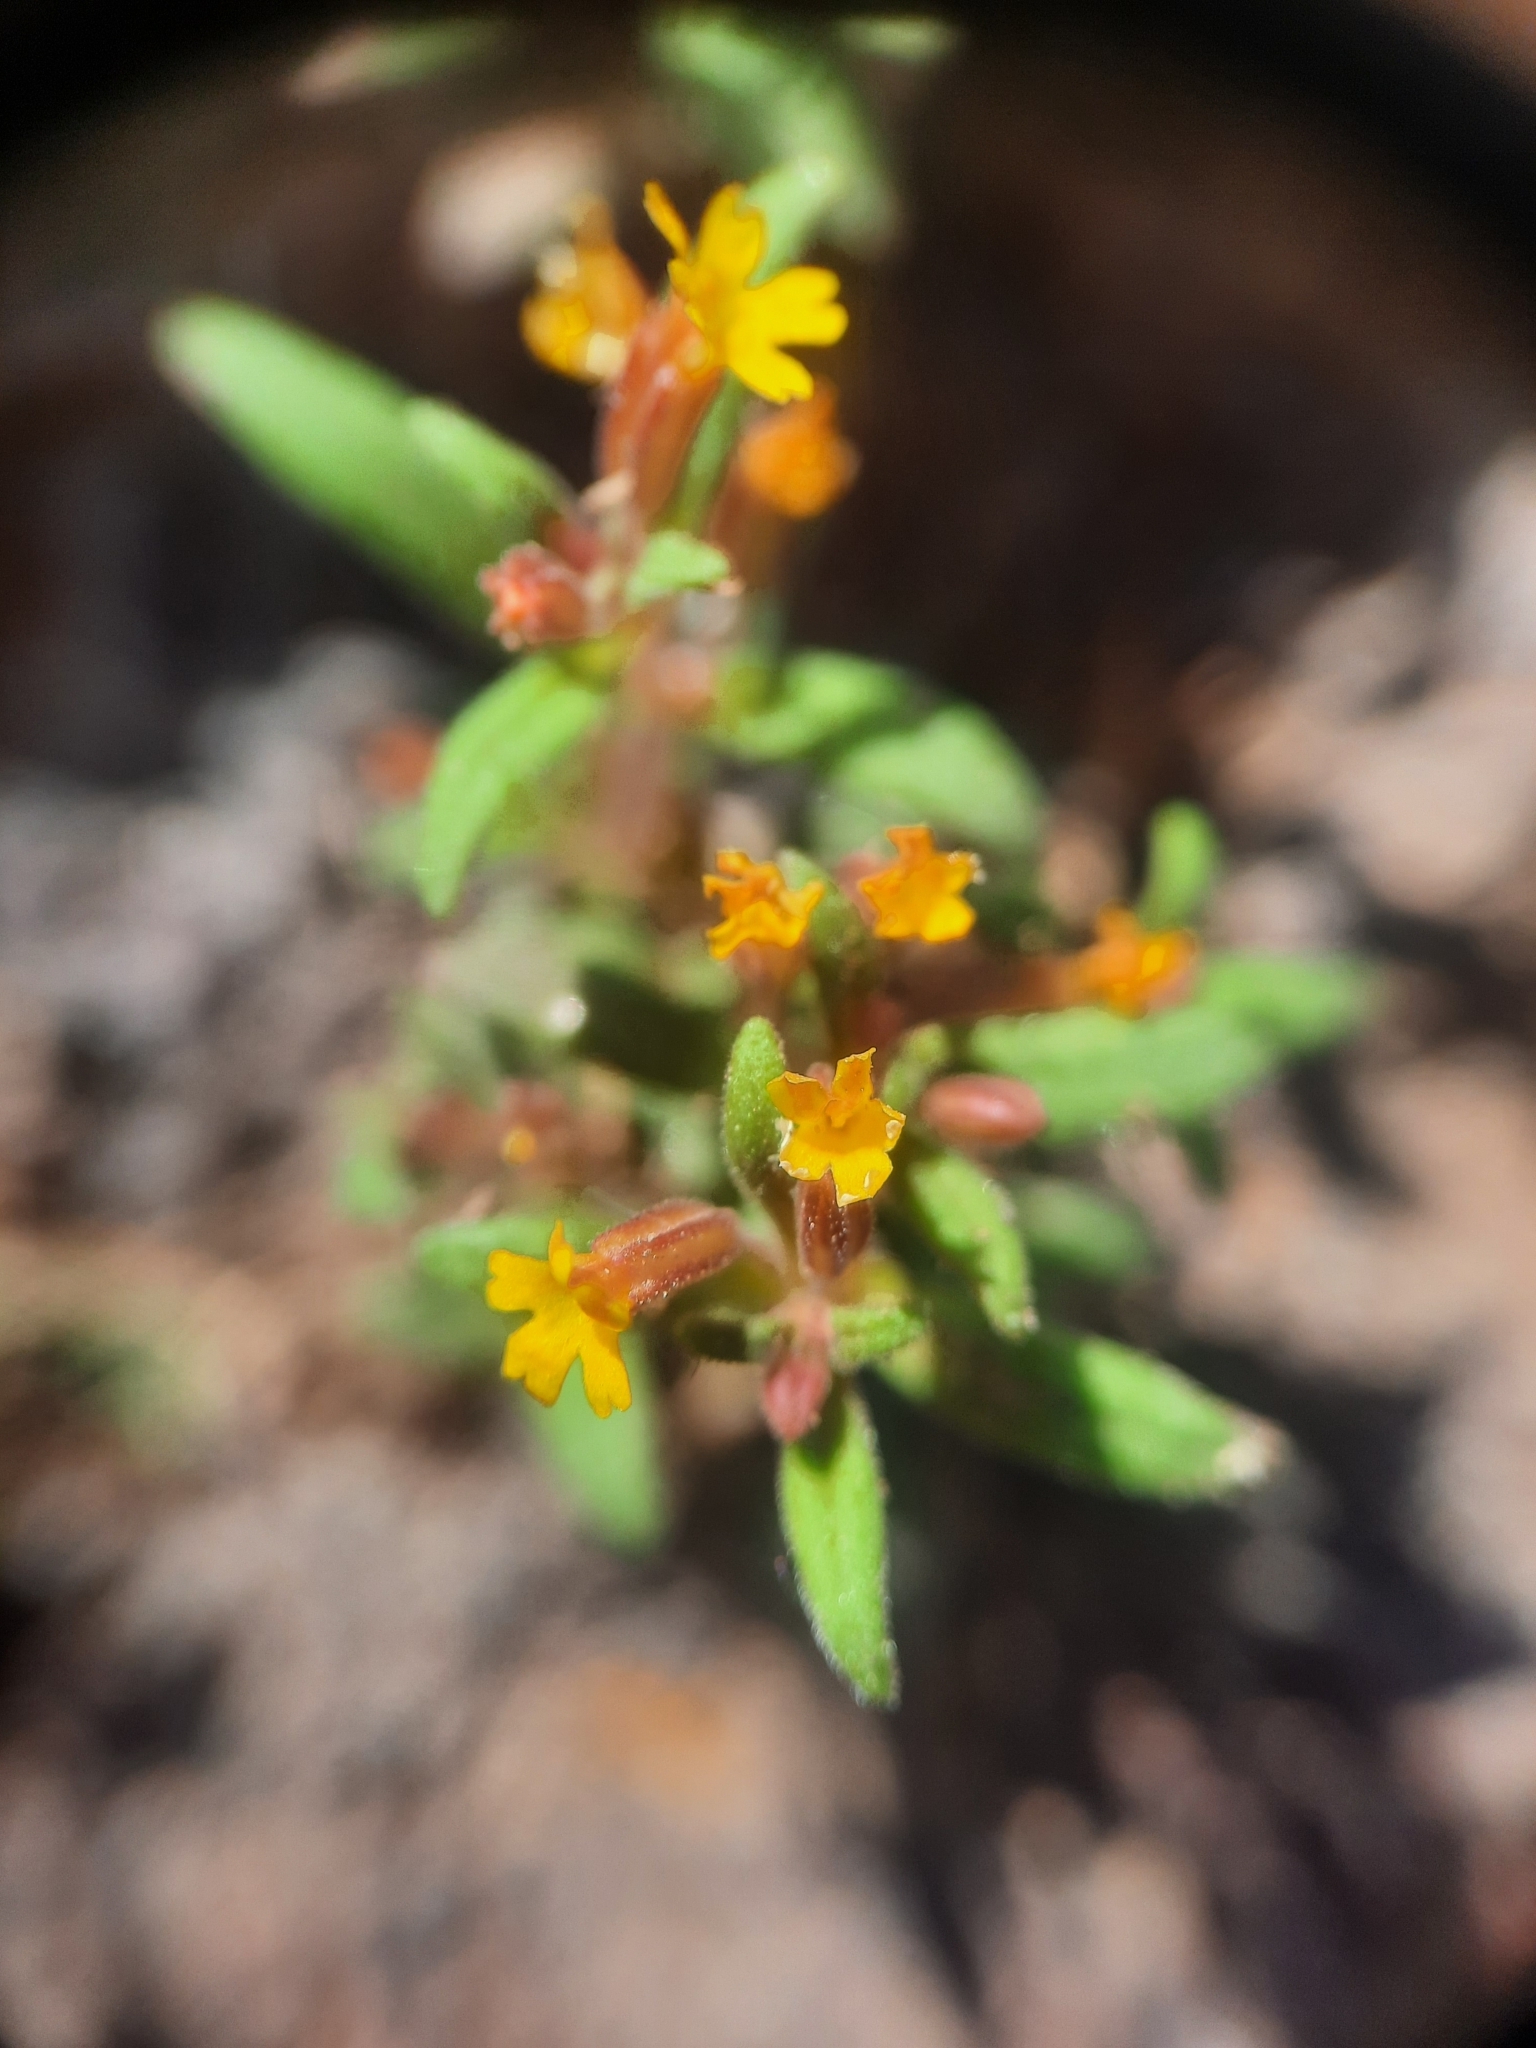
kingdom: Plantae
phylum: Tracheophyta
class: Magnoliopsida
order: Lamiales
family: Phrymaceae
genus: Erythranthe
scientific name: Erythranthe suksdorfii
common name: Suksdorf's monkeyflower
